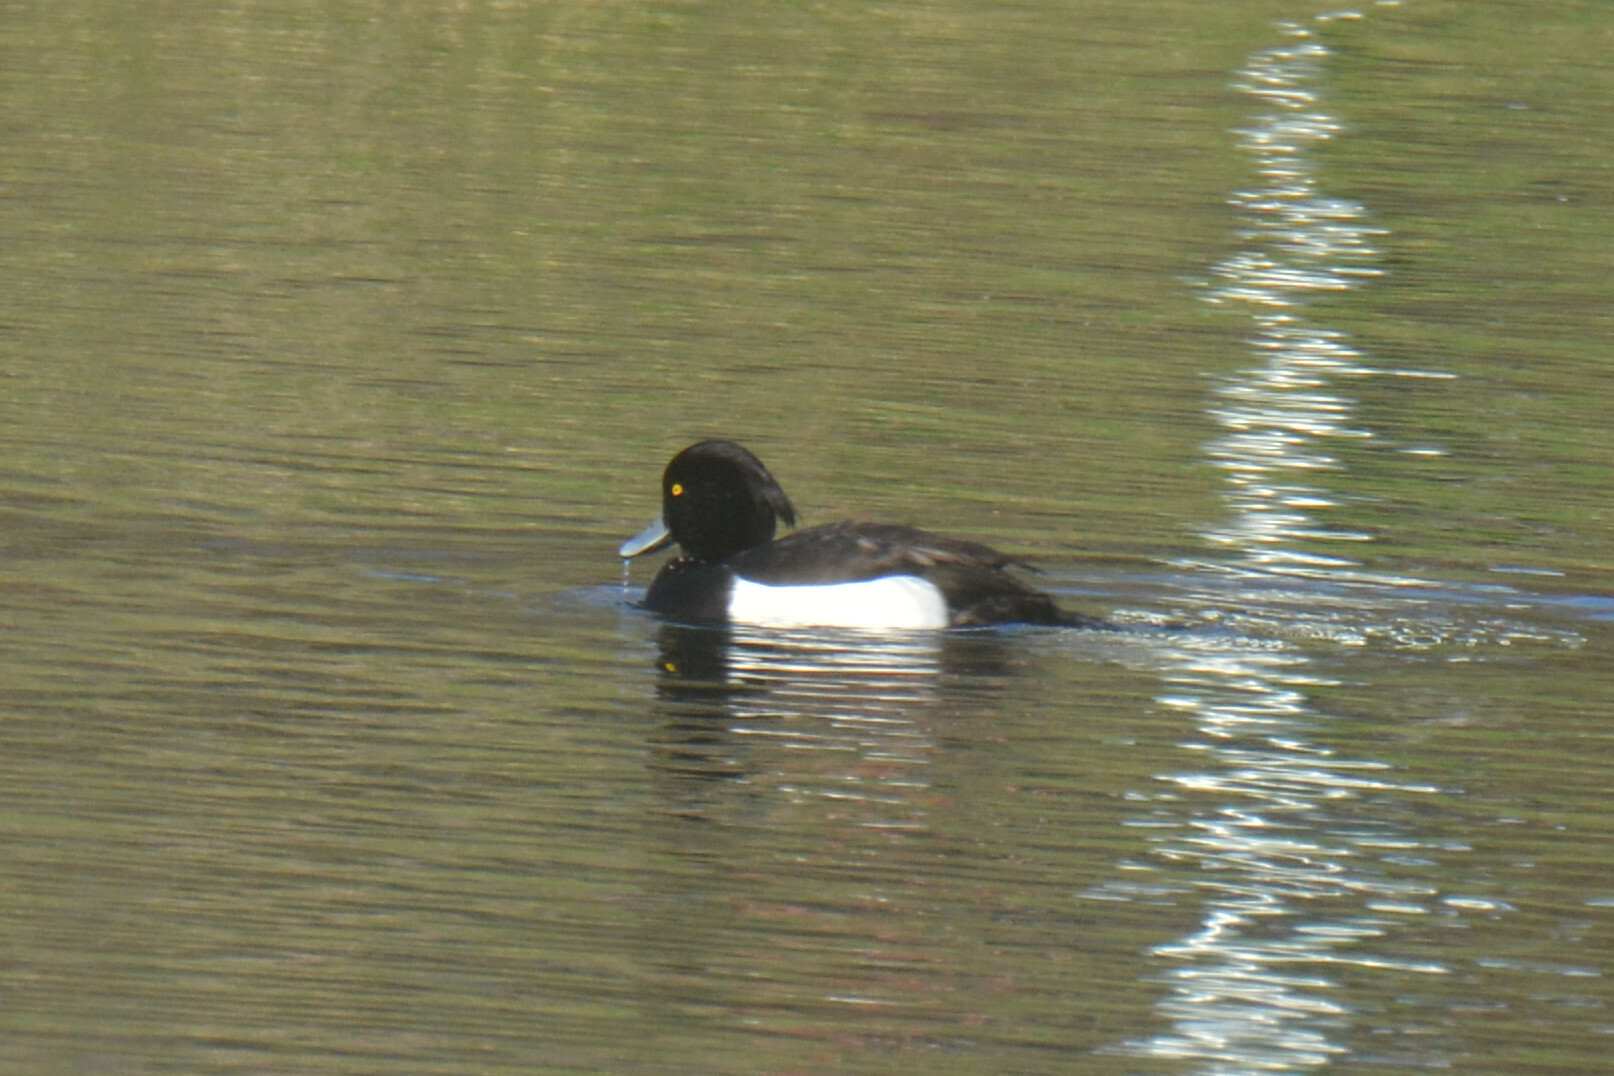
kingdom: Animalia
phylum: Chordata
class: Aves
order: Anseriformes
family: Anatidae
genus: Aythya
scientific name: Aythya fuligula
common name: Tufted duck
